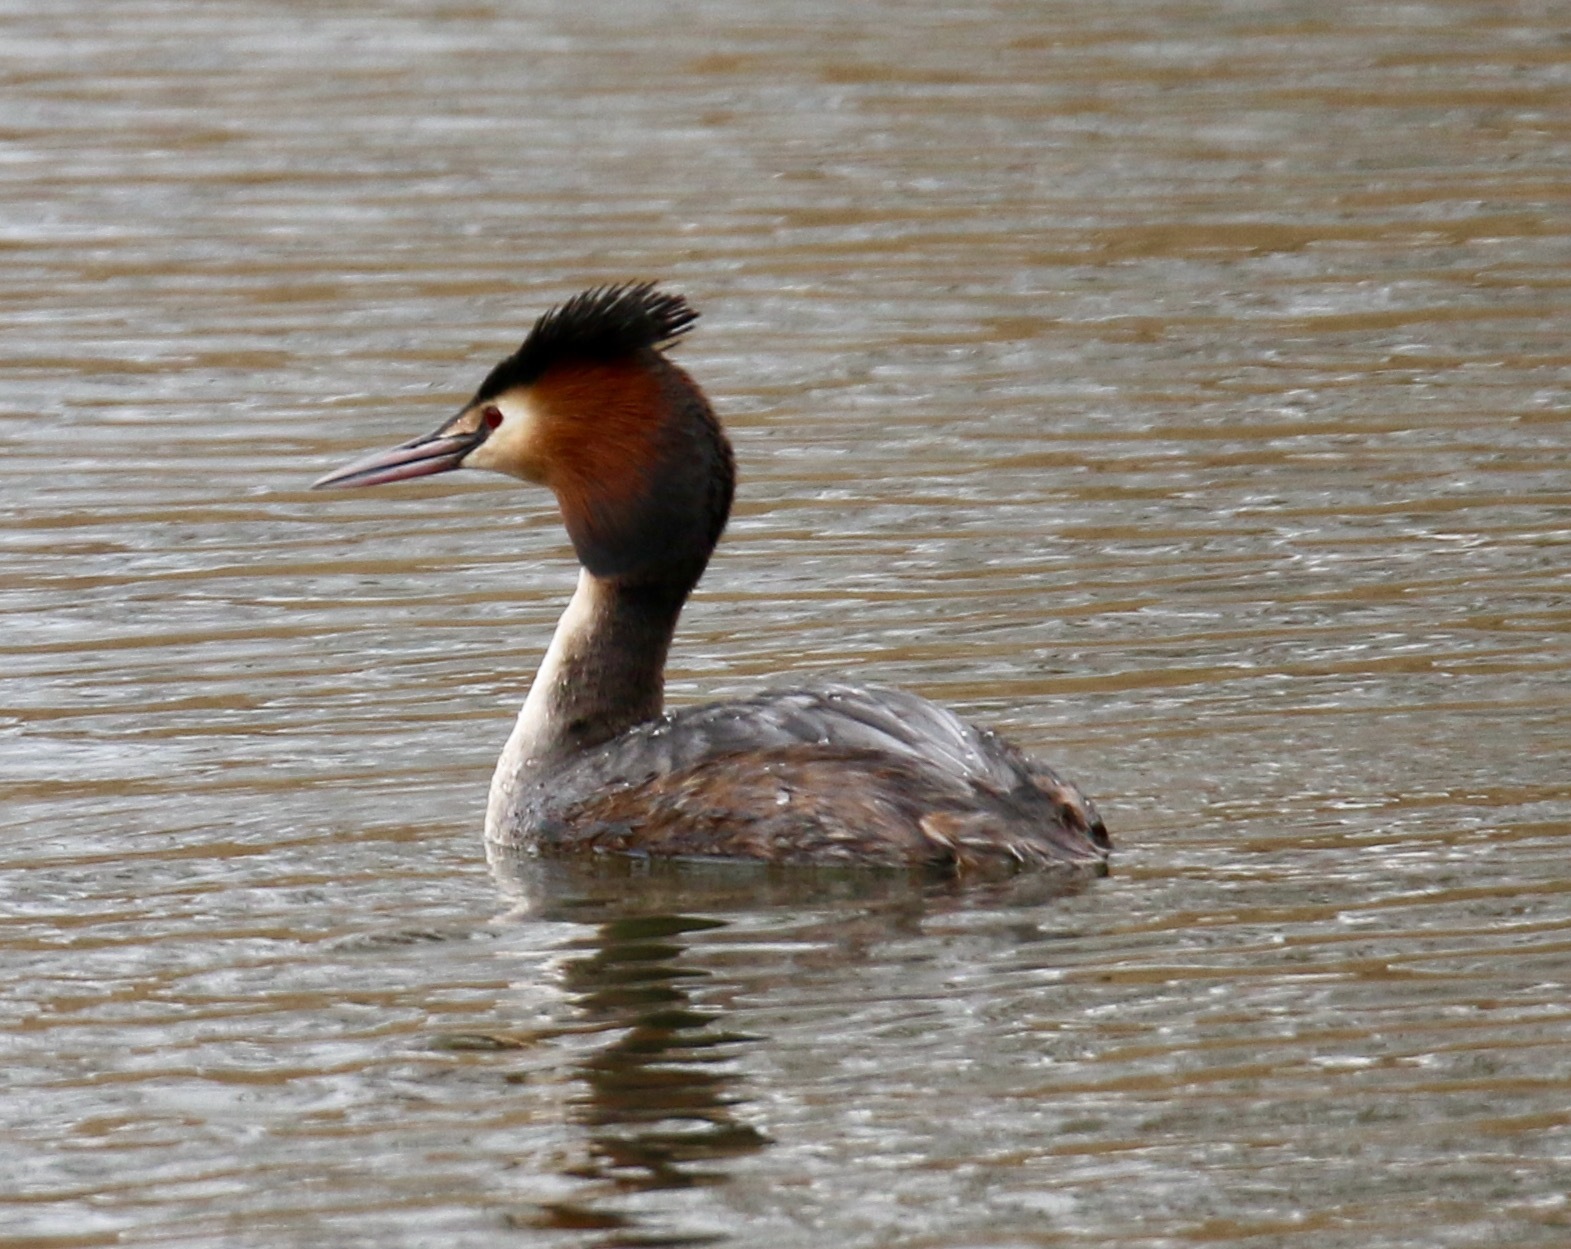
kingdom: Animalia
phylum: Chordata
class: Aves
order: Podicipediformes
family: Podicipedidae
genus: Podiceps
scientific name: Podiceps cristatus
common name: Great crested grebe
